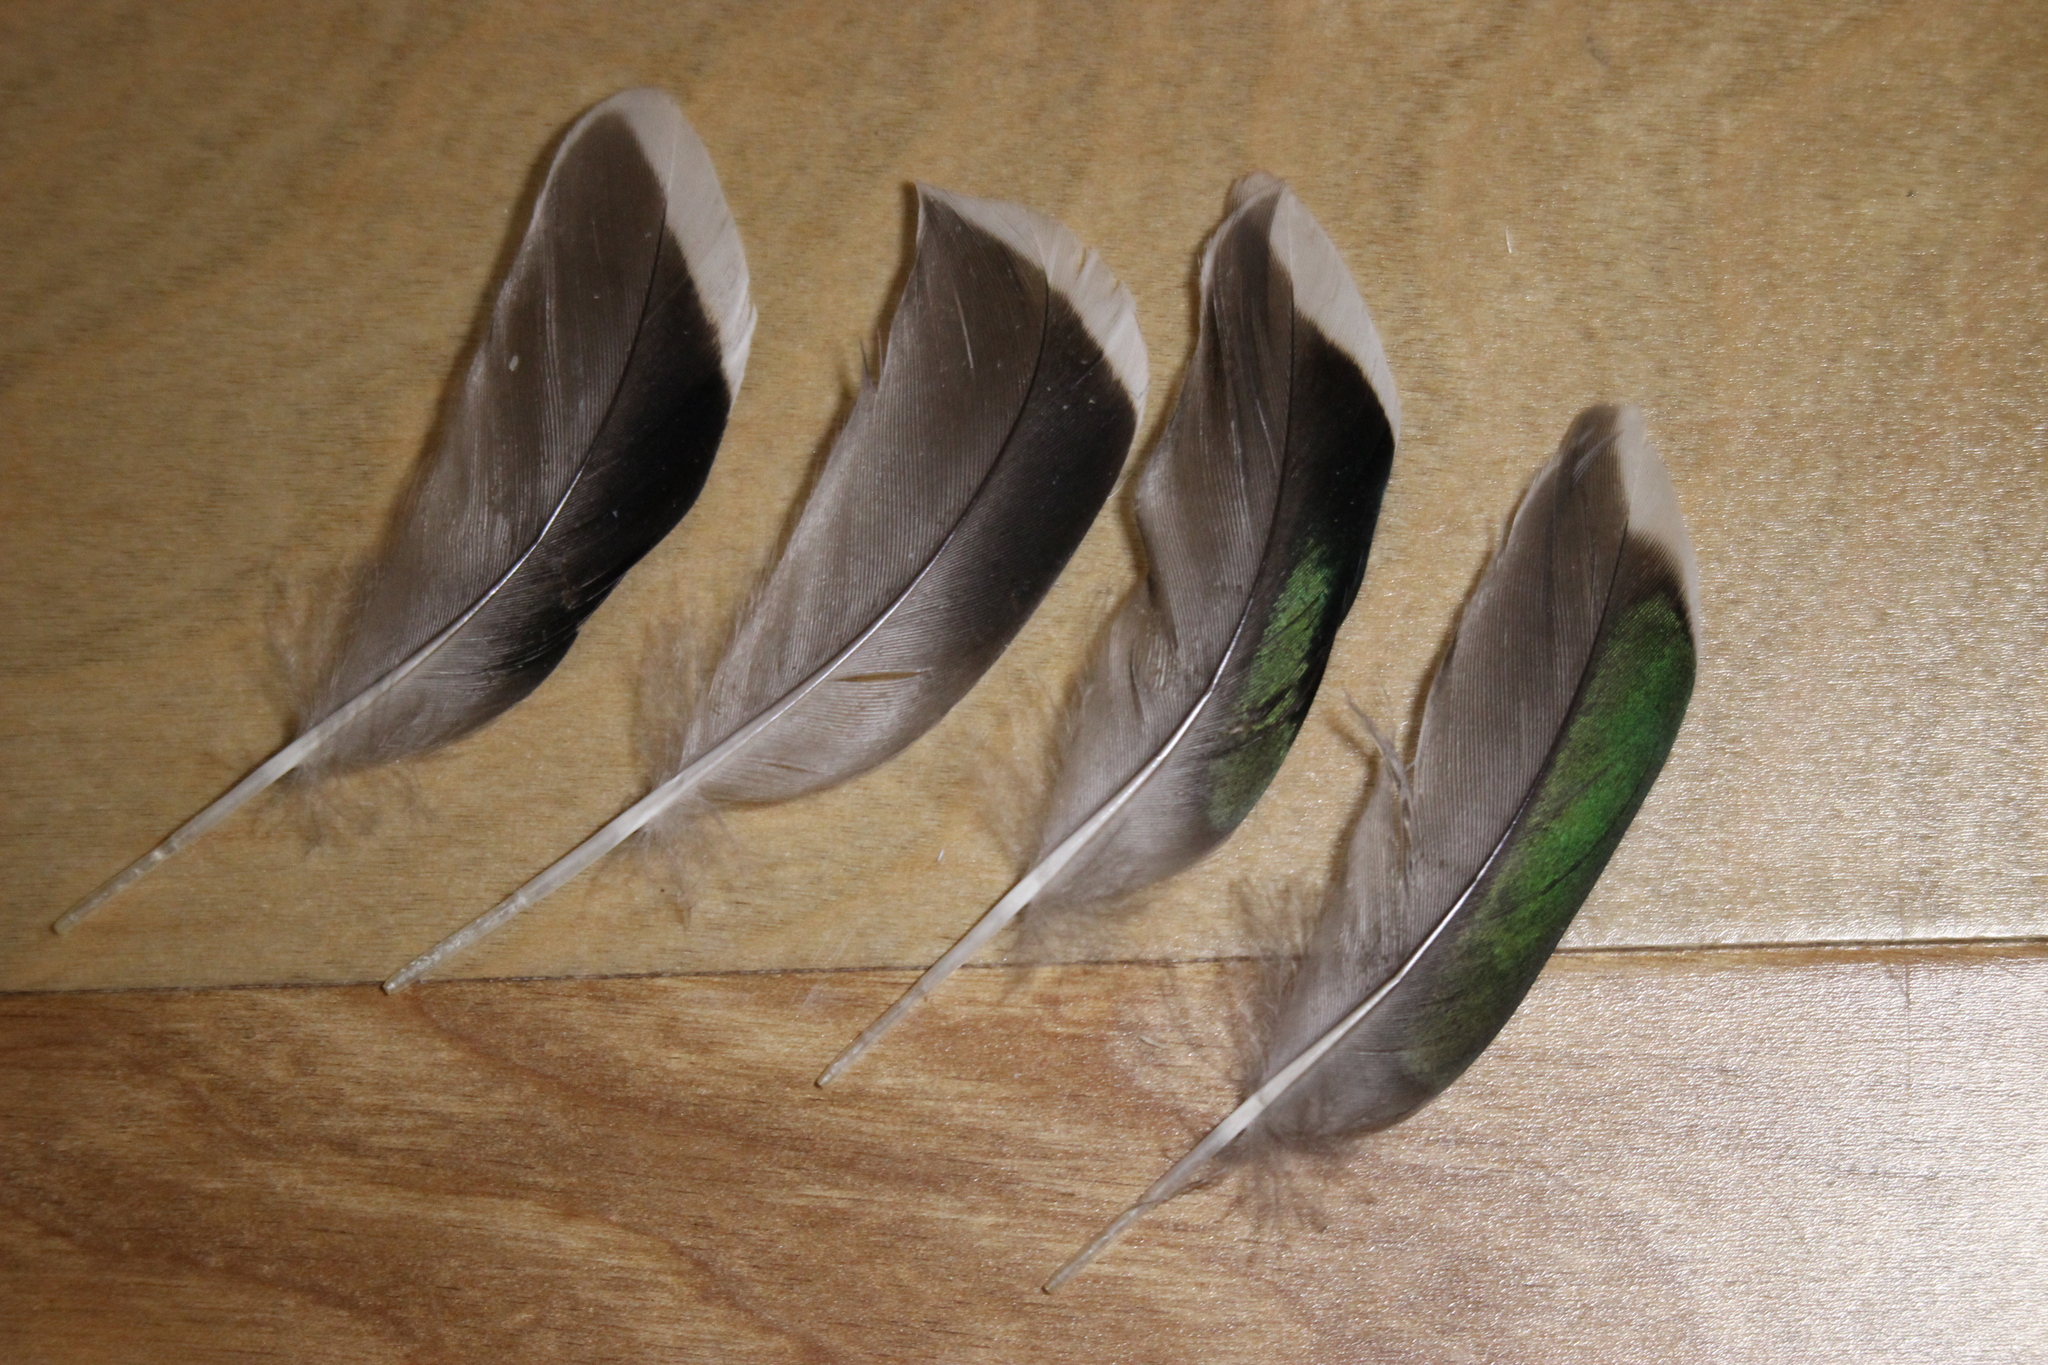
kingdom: Animalia
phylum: Chordata
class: Aves
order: Anseriformes
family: Anatidae
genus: Anas
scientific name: Anas carolinensis
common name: Green-winged teal
